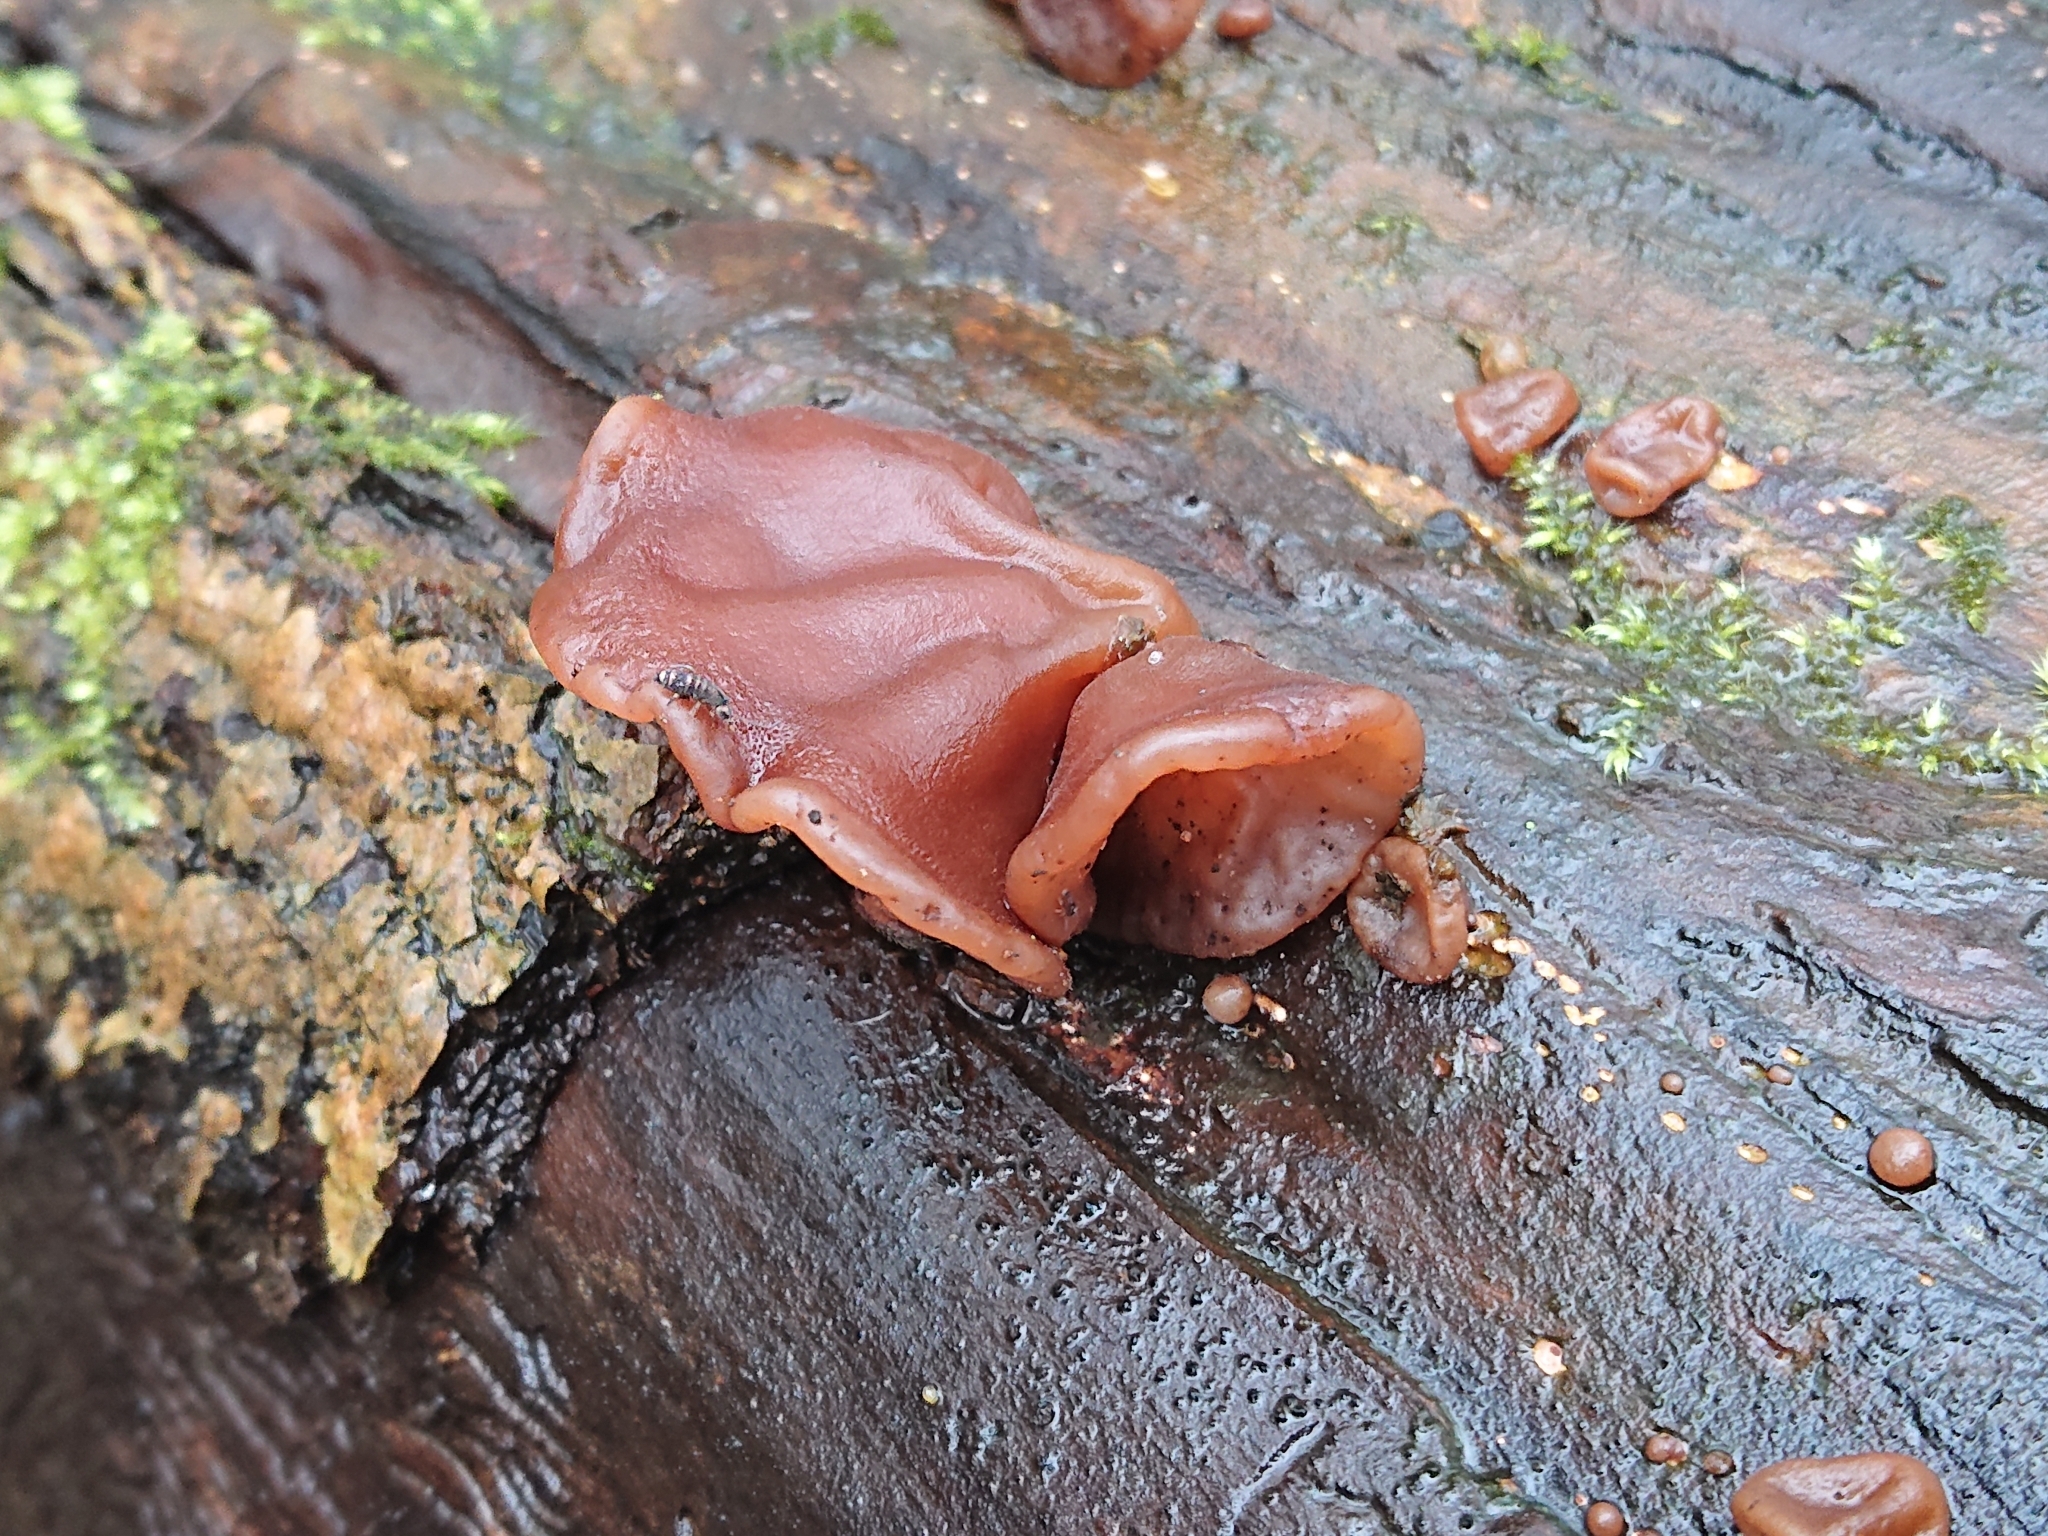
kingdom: Fungi
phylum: Basidiomycota
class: Agaricomycetes
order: Auriculariales
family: Auriculariaceae
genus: Auricularia
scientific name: Auricularia auricula-judae
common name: Jelly ear
